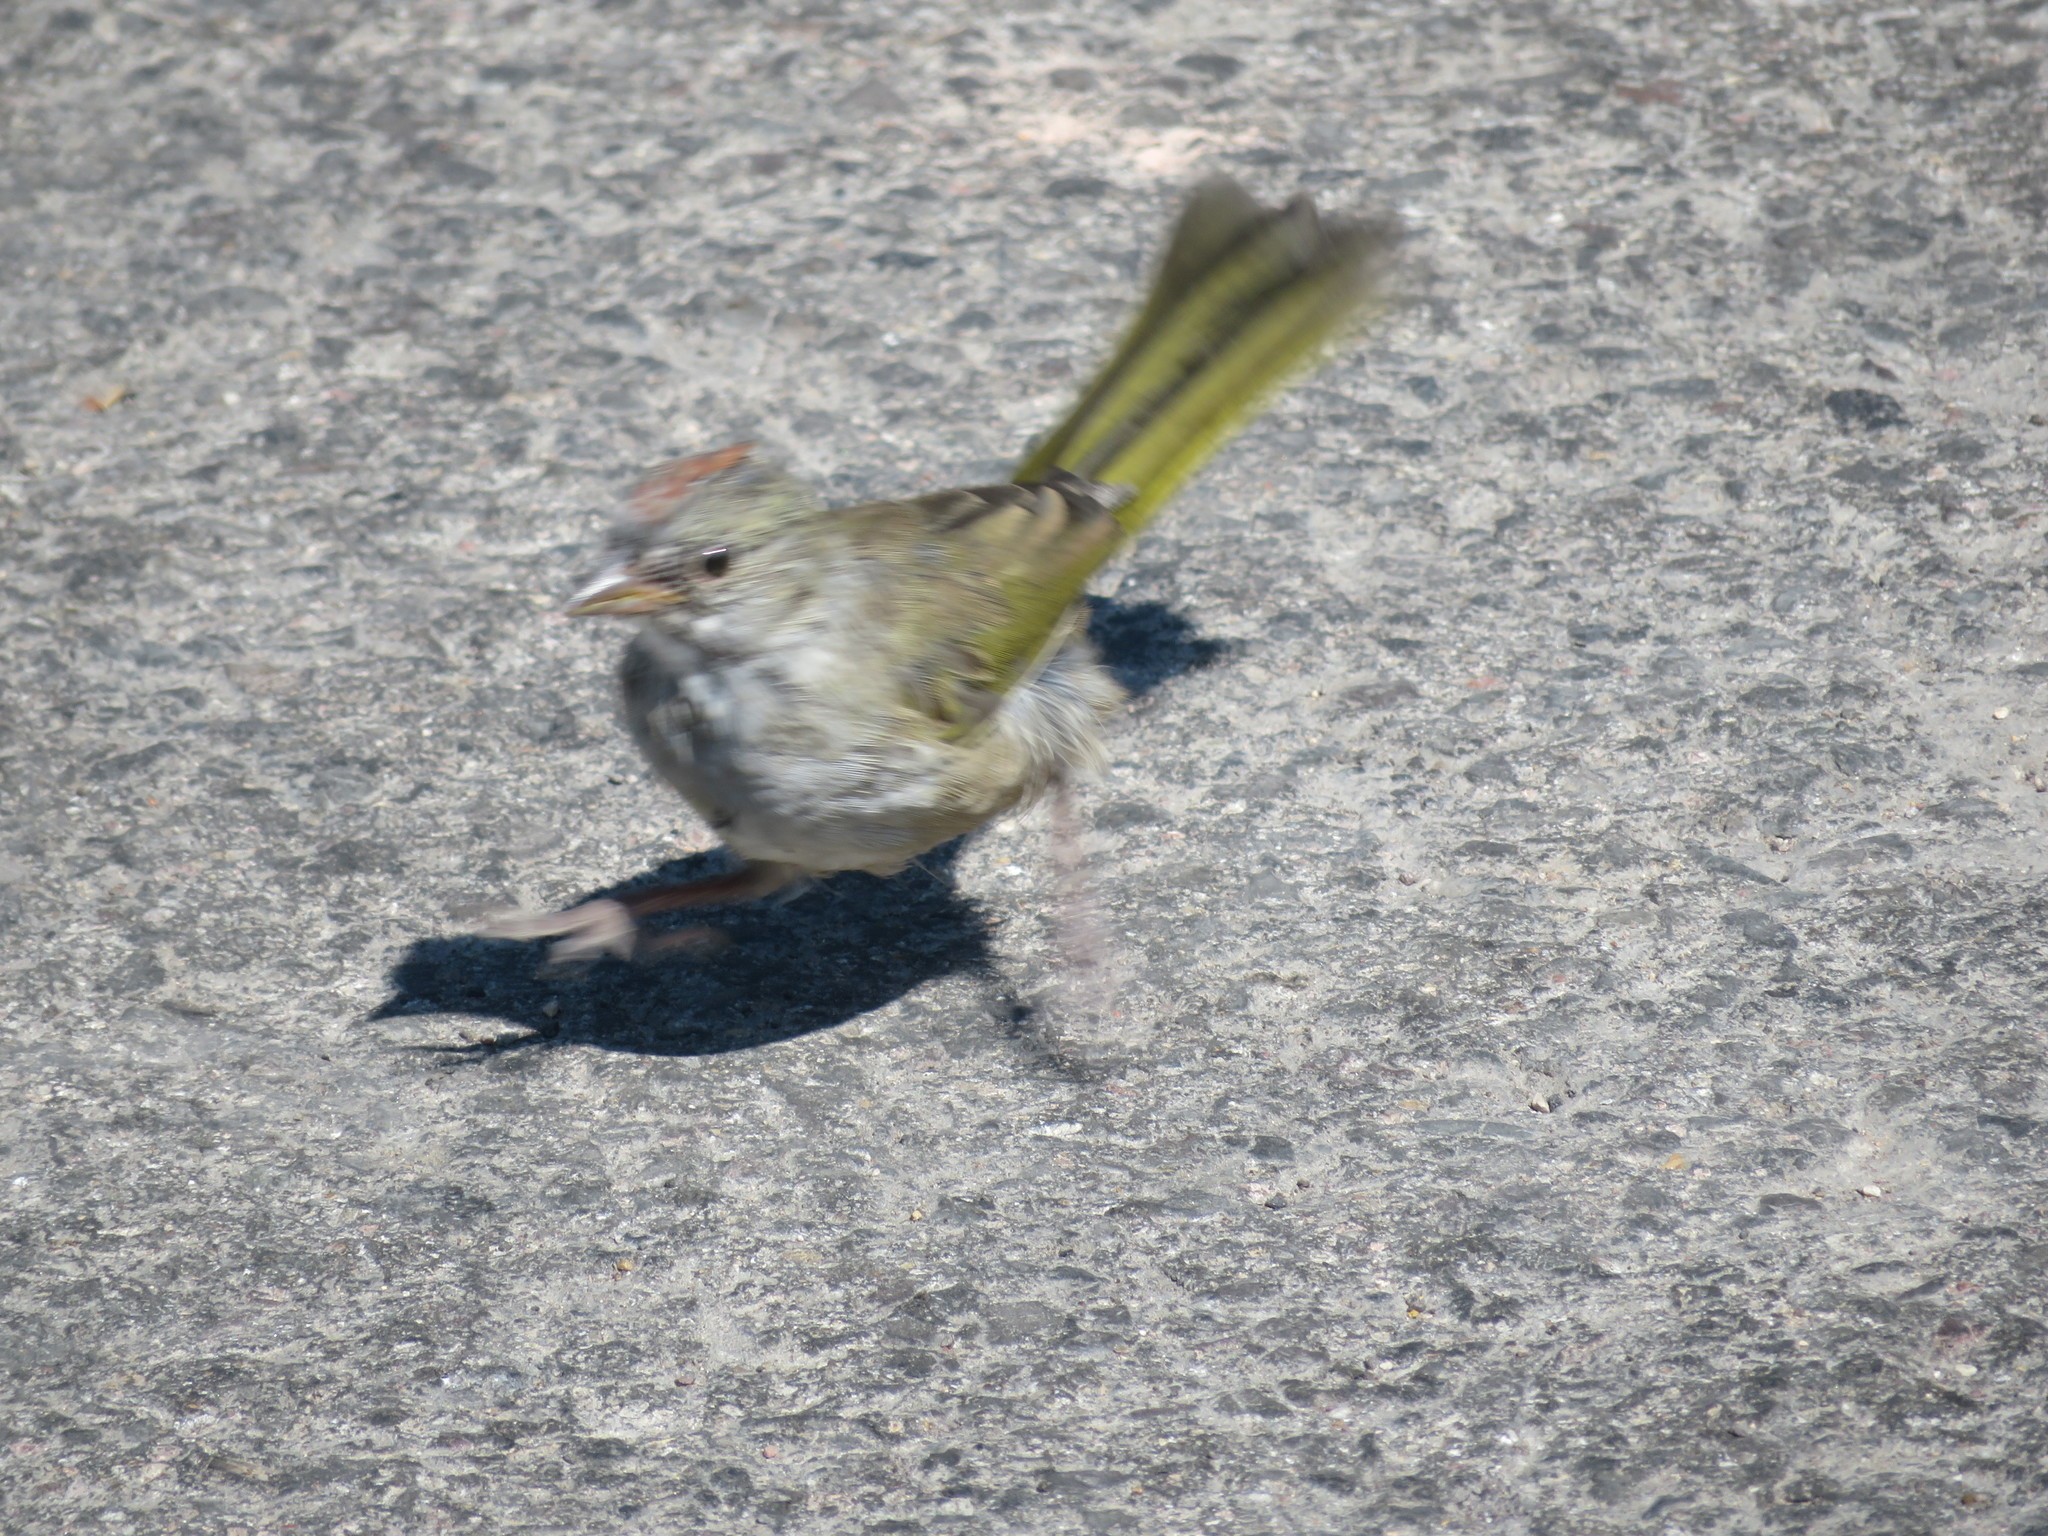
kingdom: Animalia
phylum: Chordata
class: Aves
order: Passeriformes
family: Passerellidae
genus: Pipilo
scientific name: Pipilo chlorurus
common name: Green-tailed towhee
